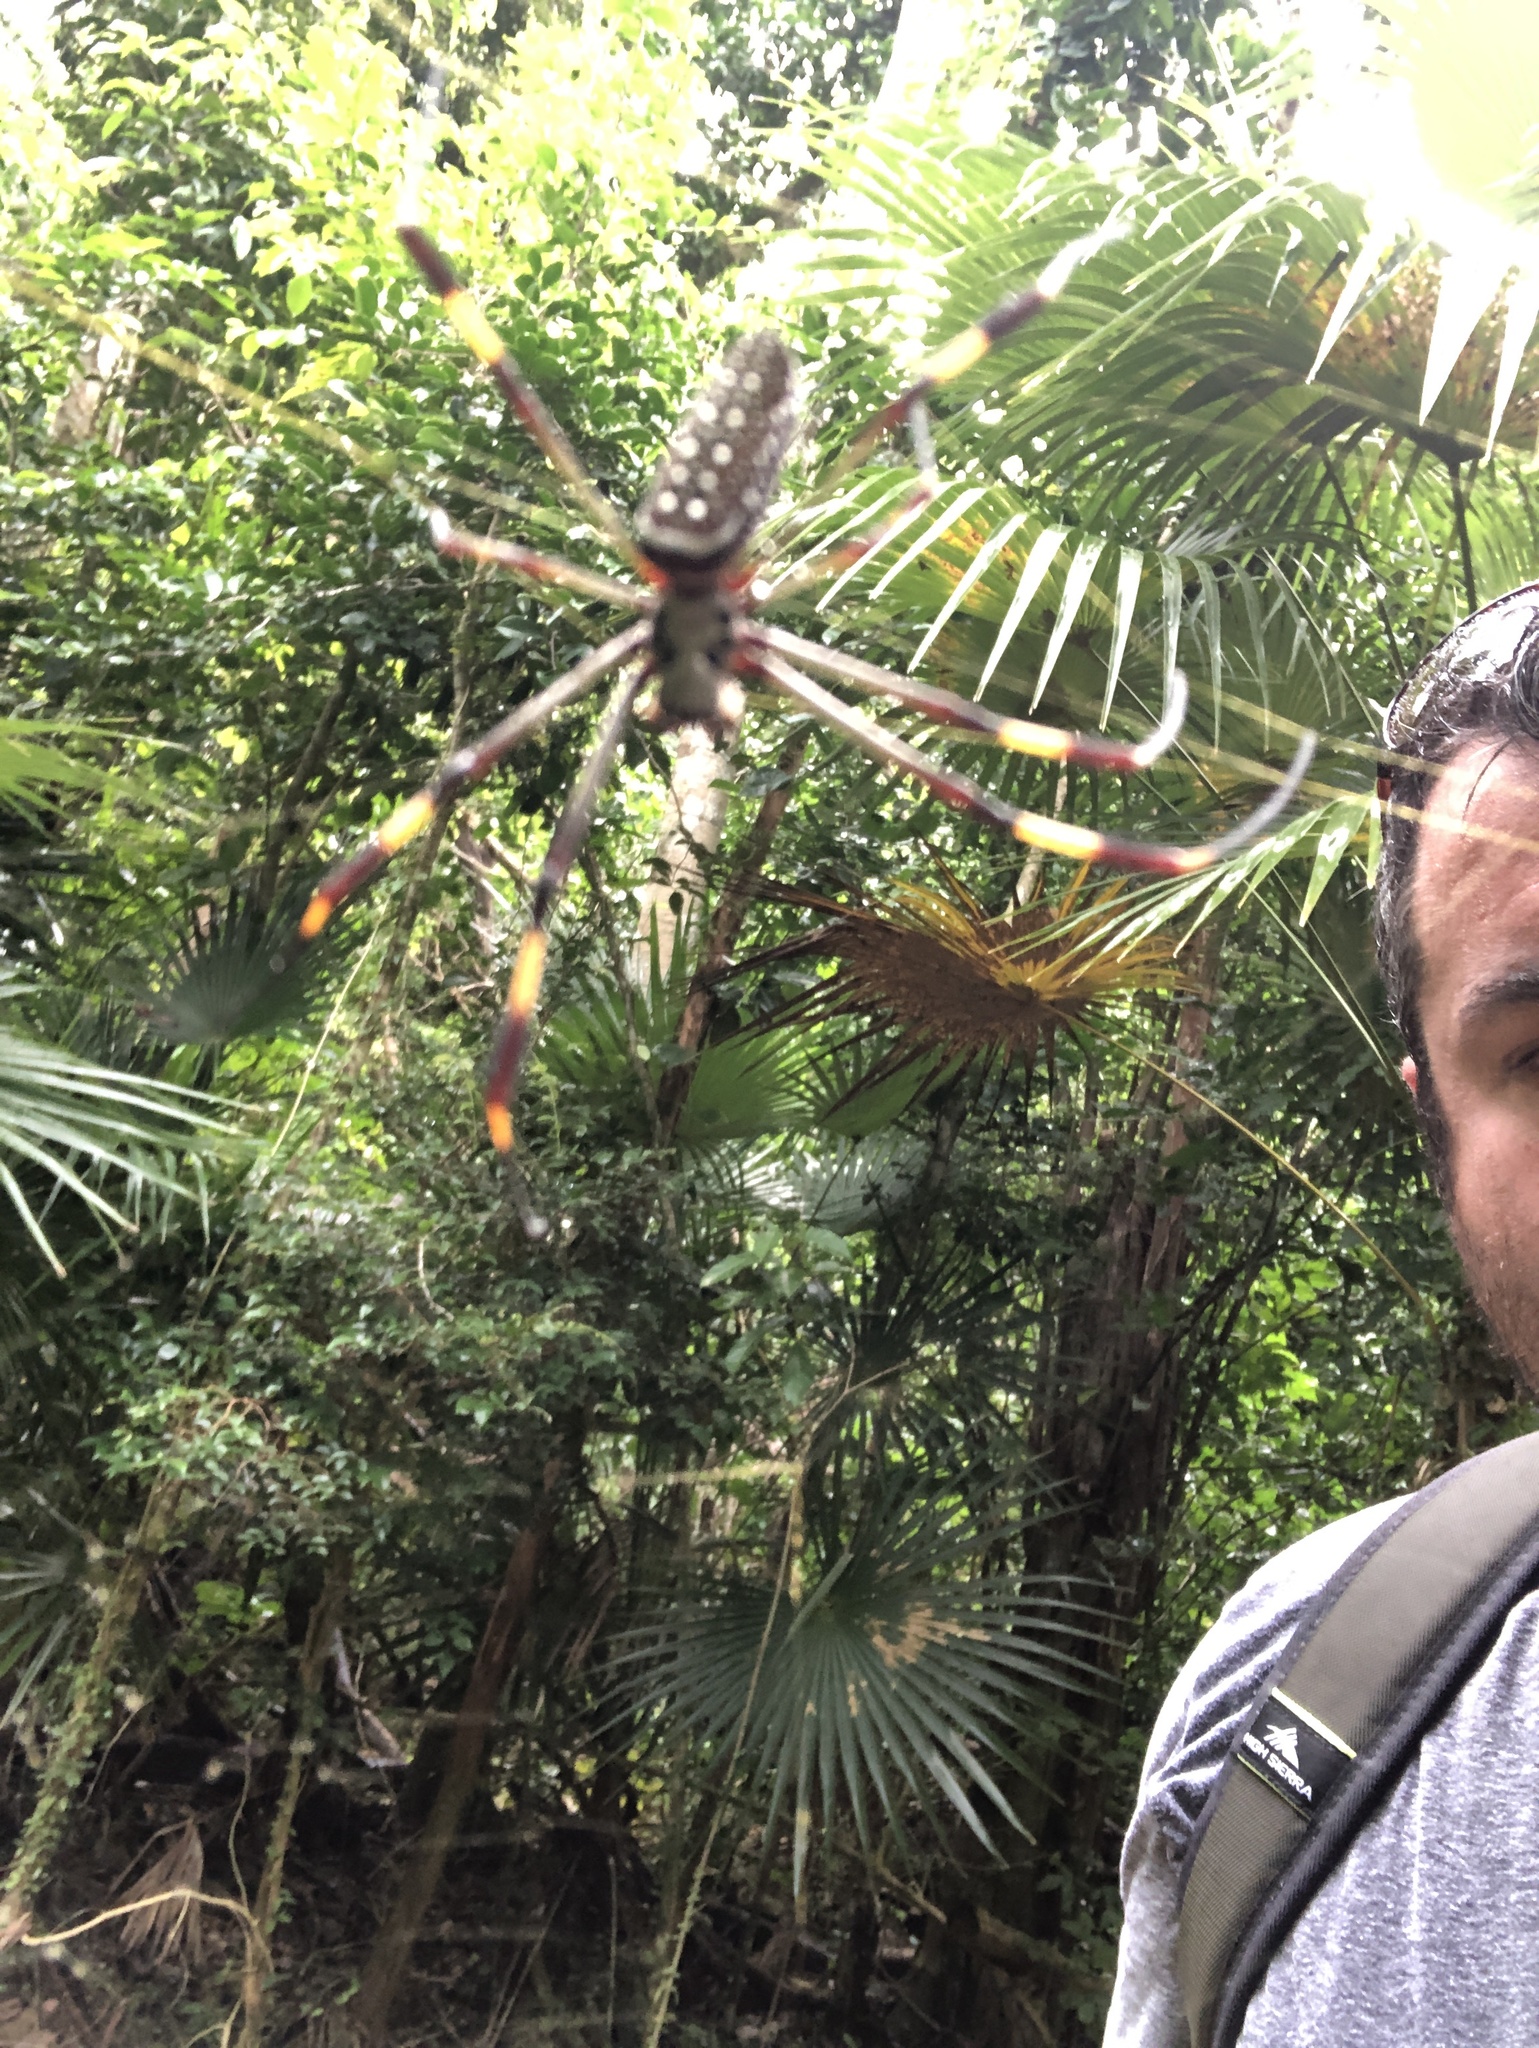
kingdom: Animalia
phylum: Arthropoda
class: Arachnida
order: Araneae
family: Araneidae
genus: Trichonephila
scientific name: Trichonephila clavipes
